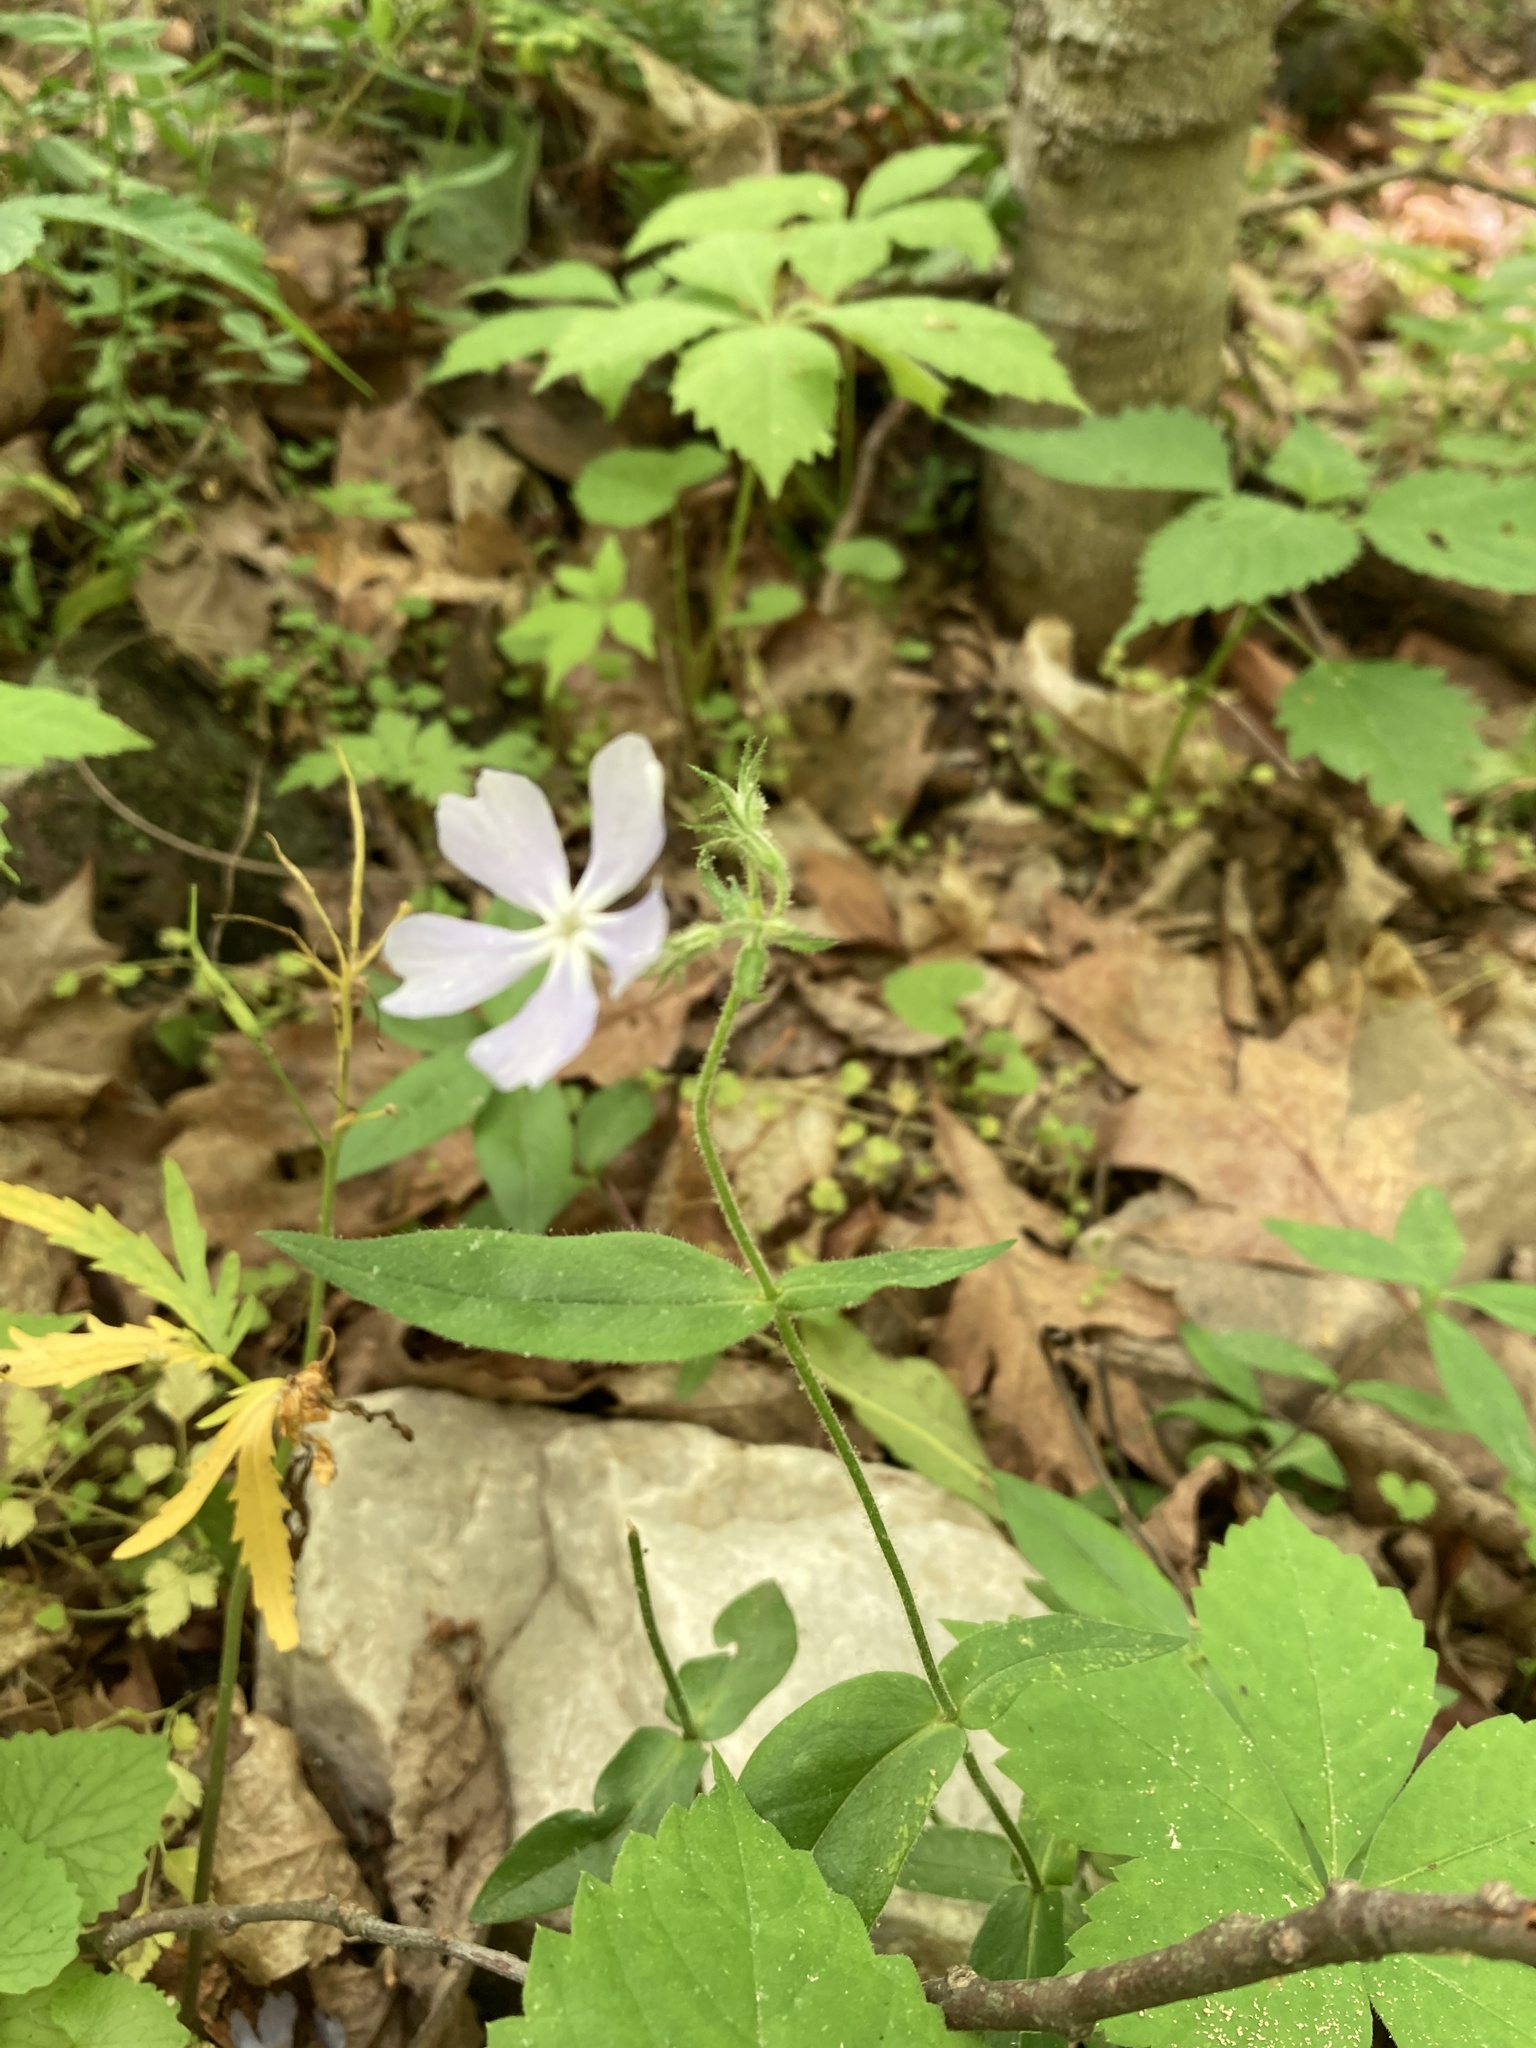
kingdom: Plantae
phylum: Tracheophyta
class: Magnoliopsida
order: Ericales
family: Polemoniaceae
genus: Phlox
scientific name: Phlox divaricata
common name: Blue phlox
